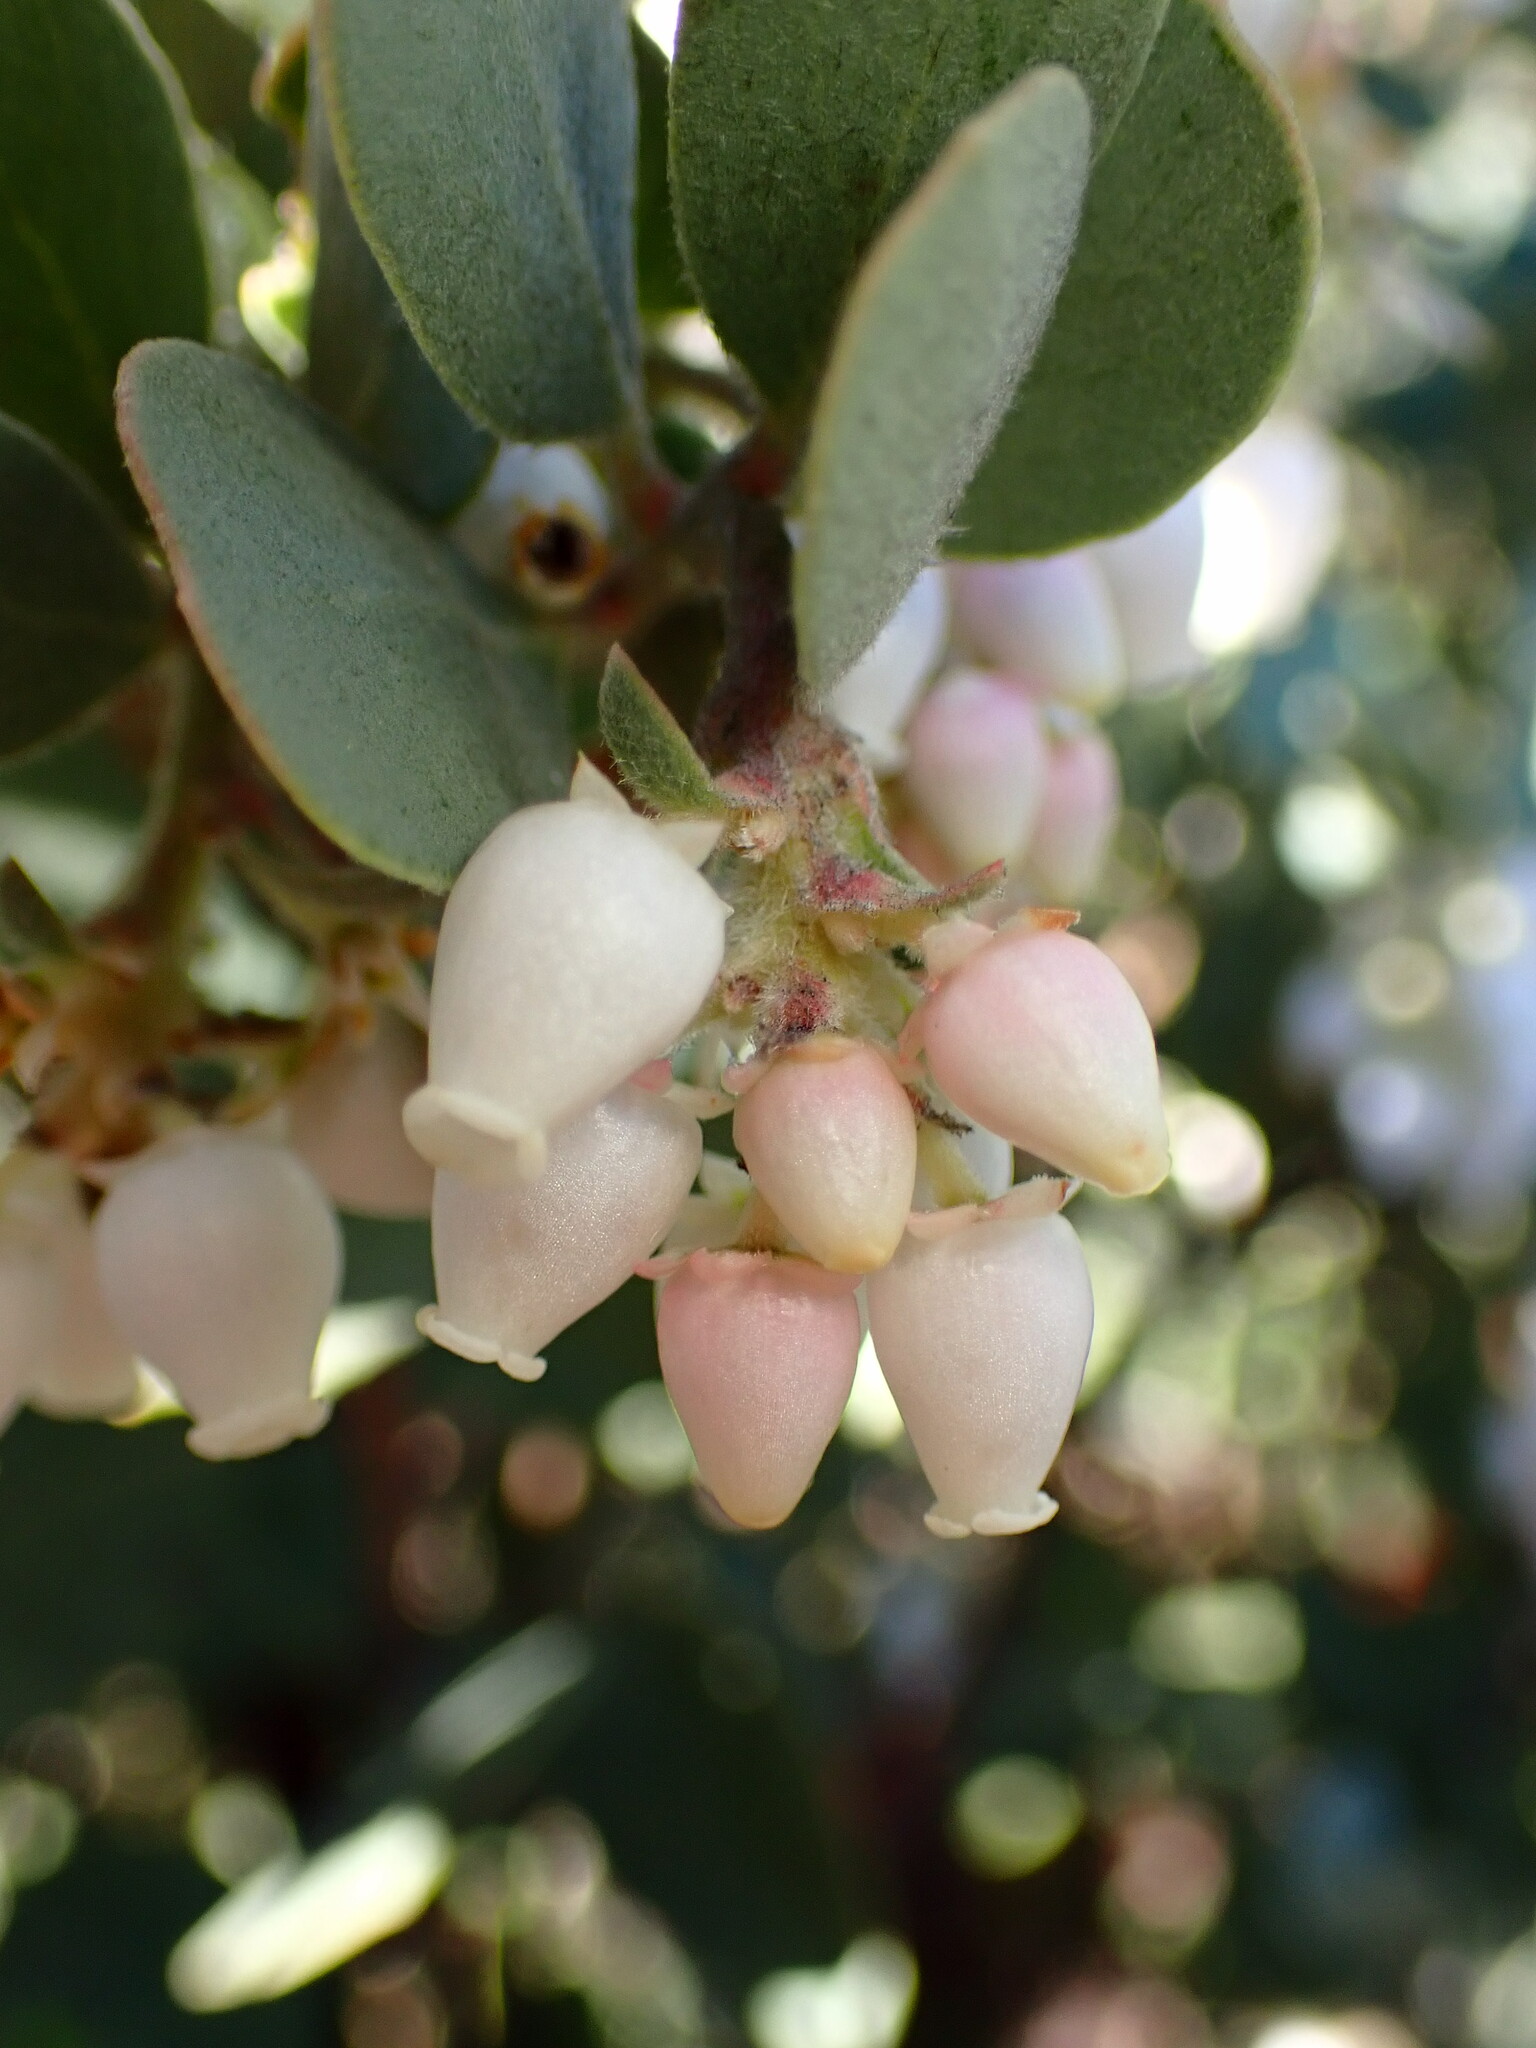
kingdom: Plantae
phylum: Tracheophyta
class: Magnoliopsida
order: Ericales
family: Ericaceae
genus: Arctostaphylos
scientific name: Arctostaphylos silvicola
